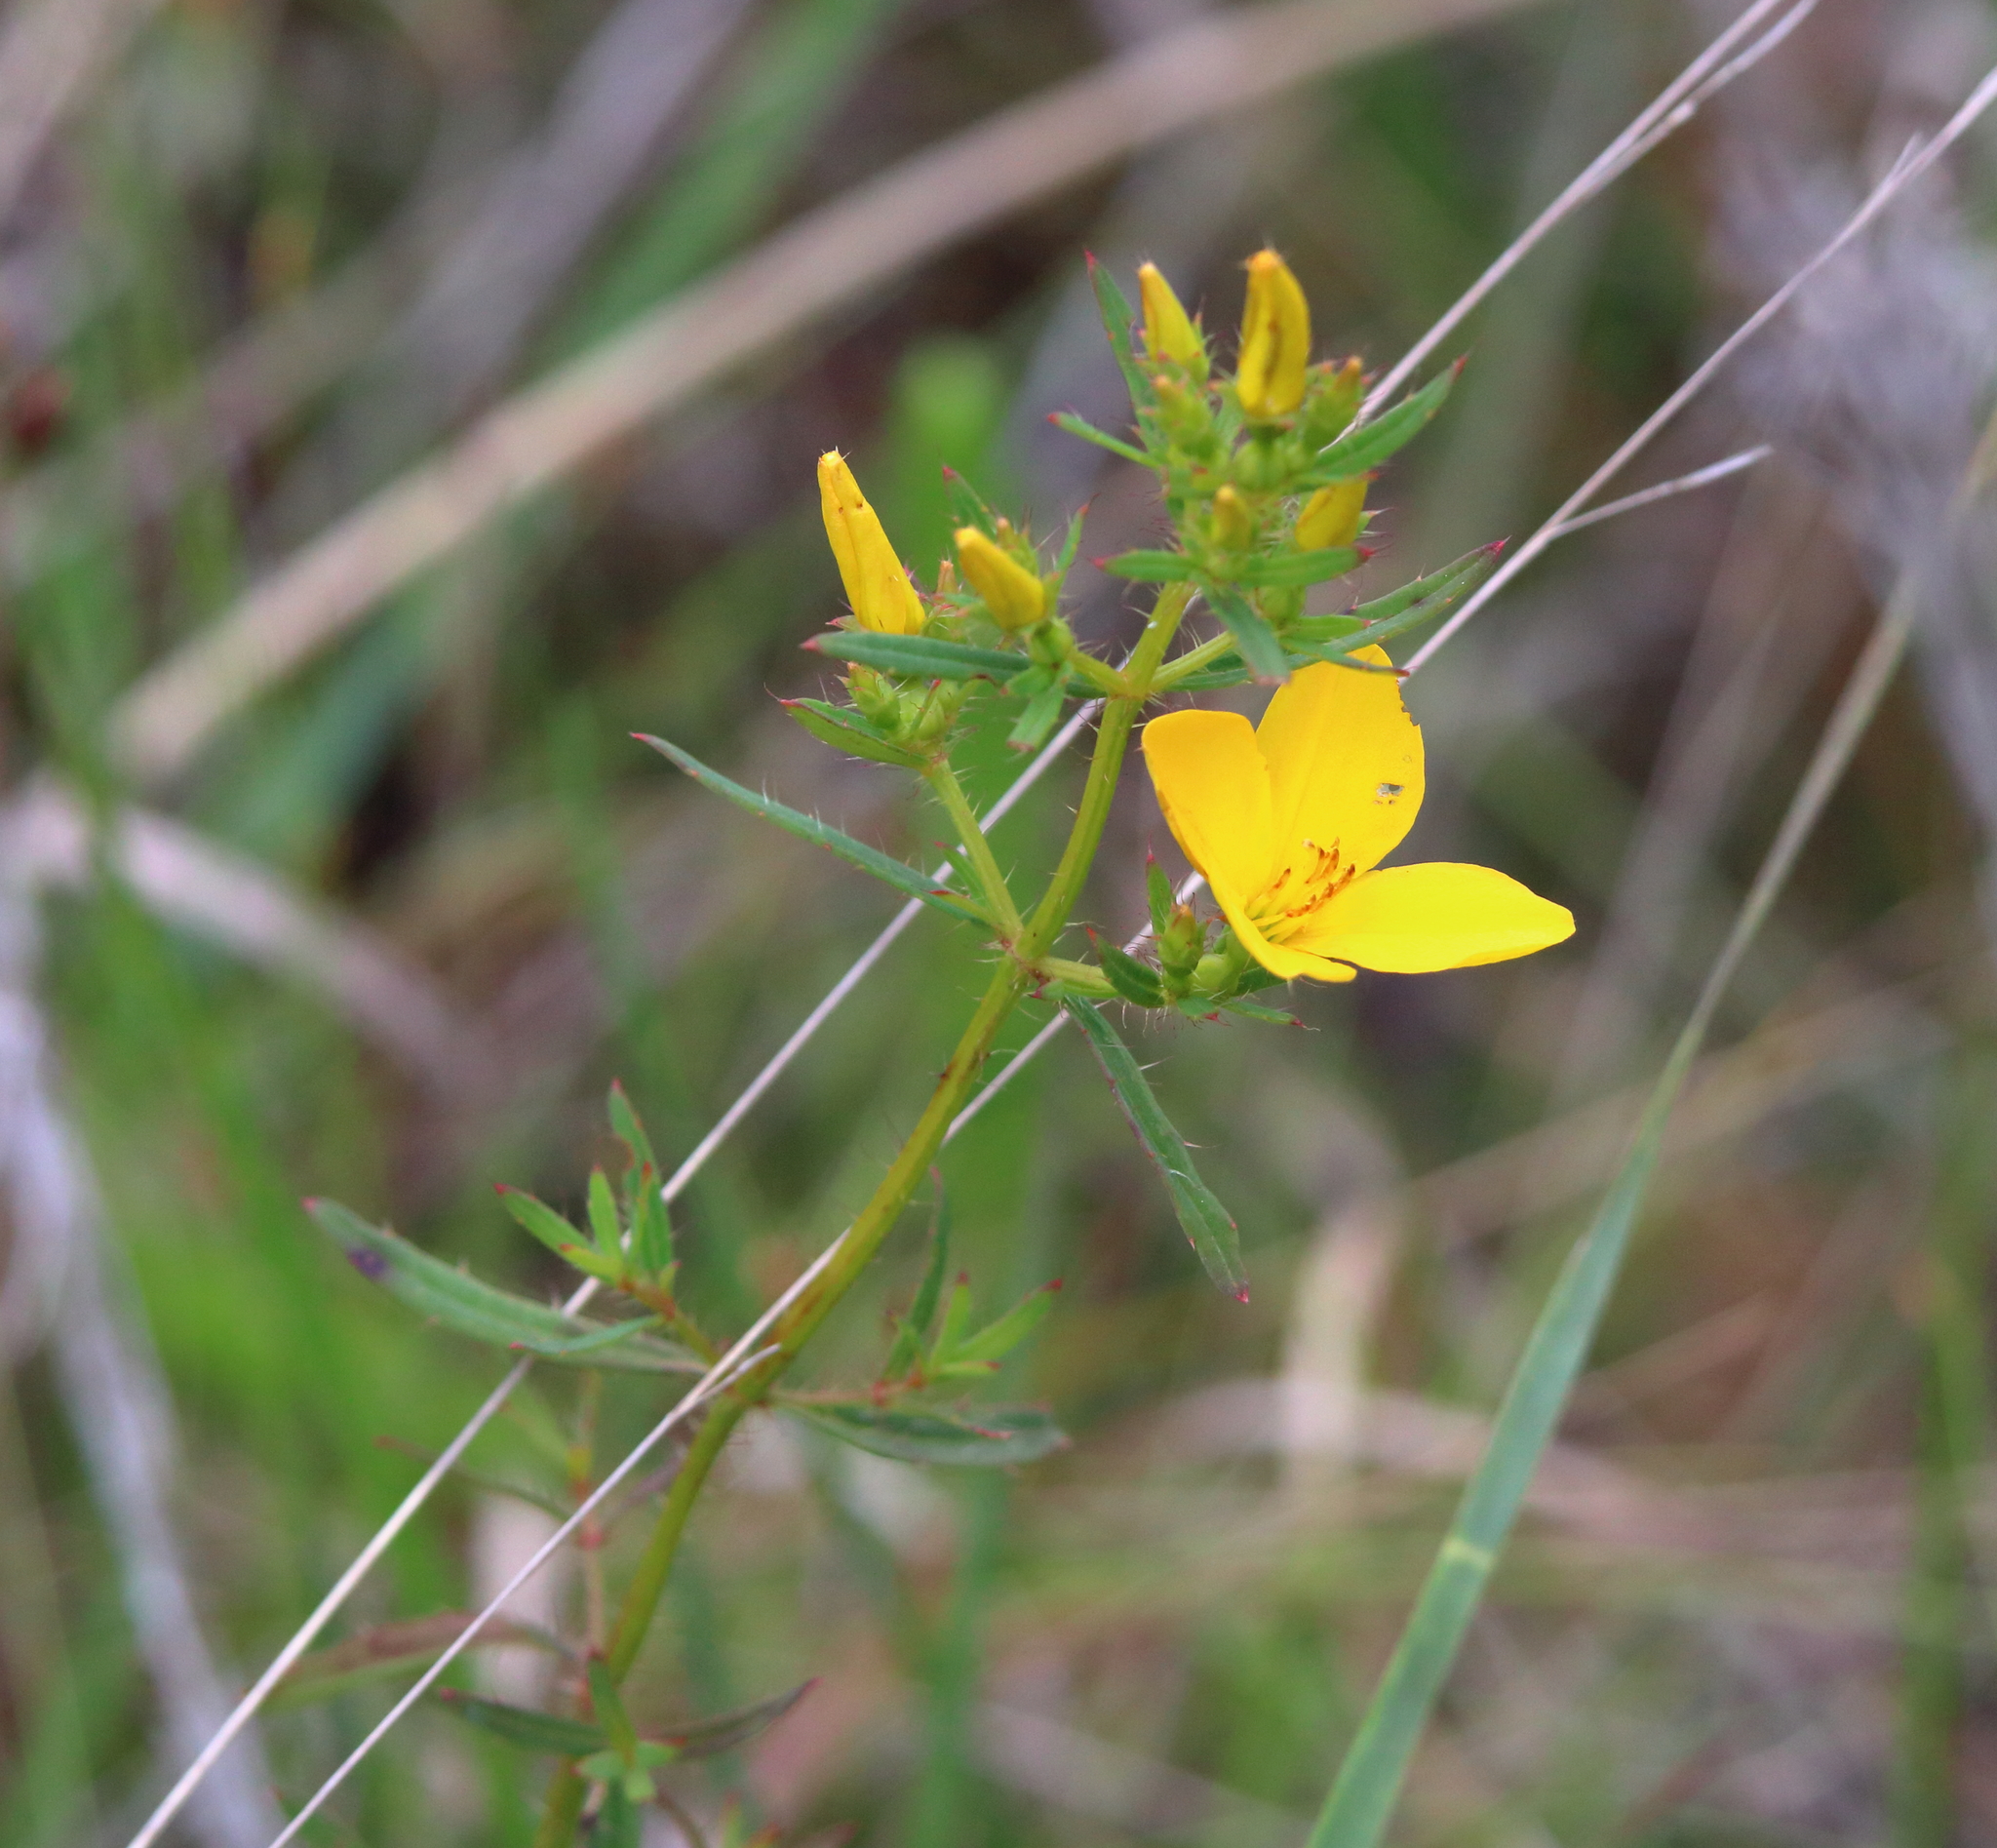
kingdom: Plantae
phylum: Tracheophyta
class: Magnoliopsida
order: Myrtales
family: Melastomataceae
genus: Rhexia
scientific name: Rhexia lutea
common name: Golden meadow-beauty
